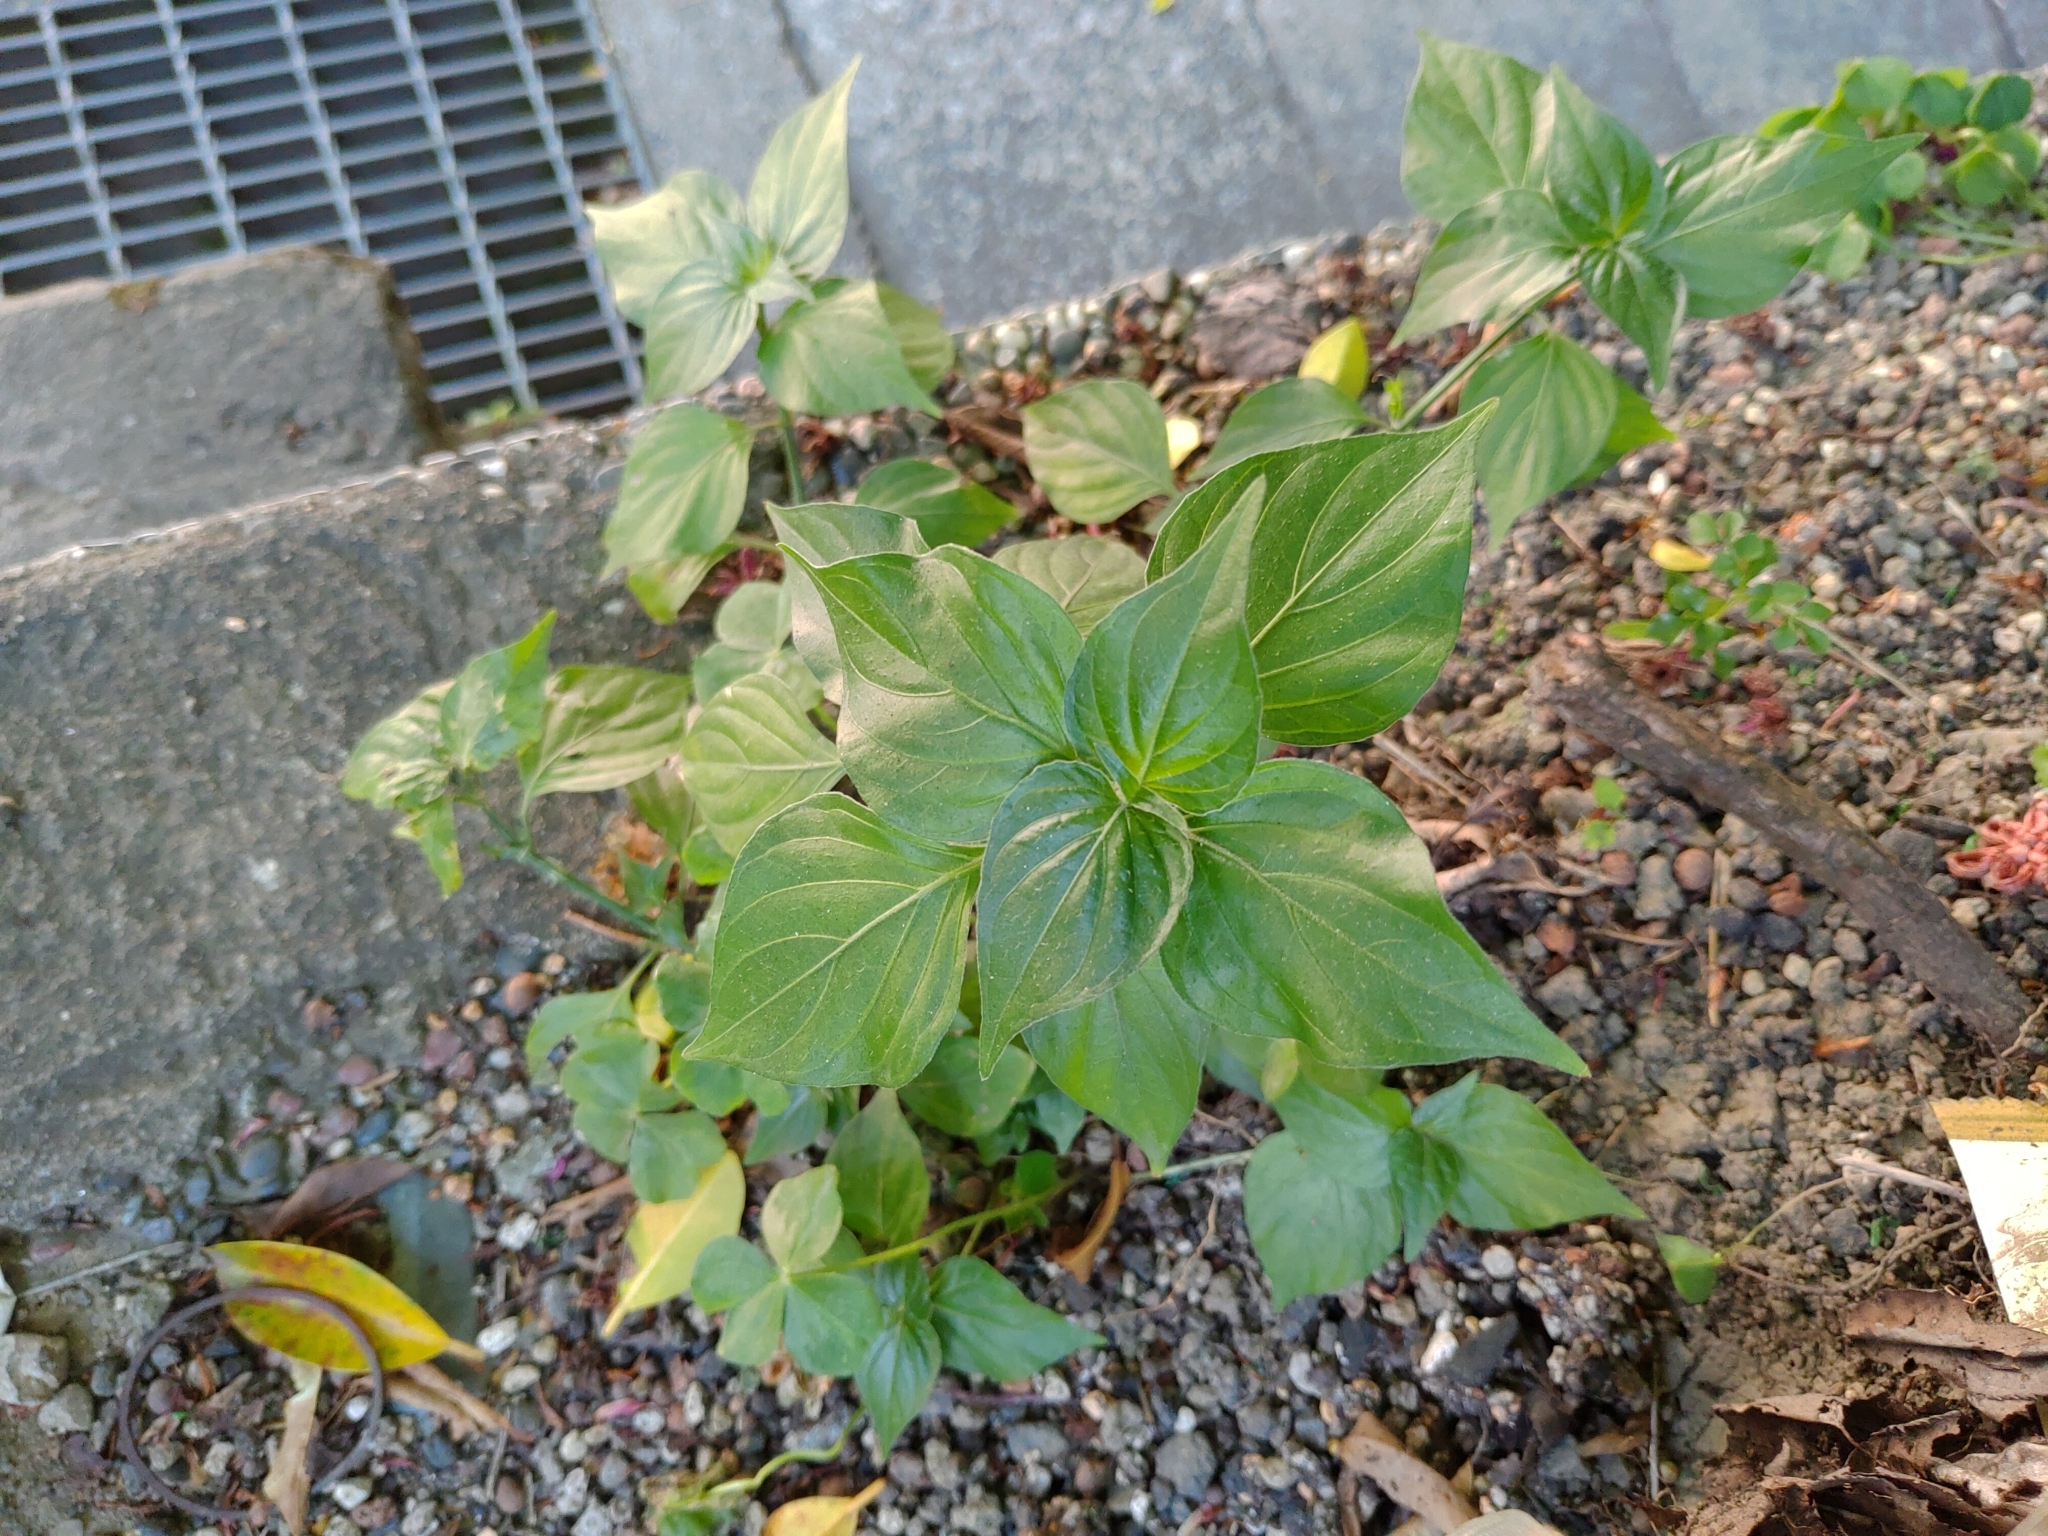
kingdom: Plantae
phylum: Tracheophyta
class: Magnoliopsida
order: Lamiales
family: Acanthaceae
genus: Dicliptera
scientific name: Dicliptera chinensis
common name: Chinese foldwing
